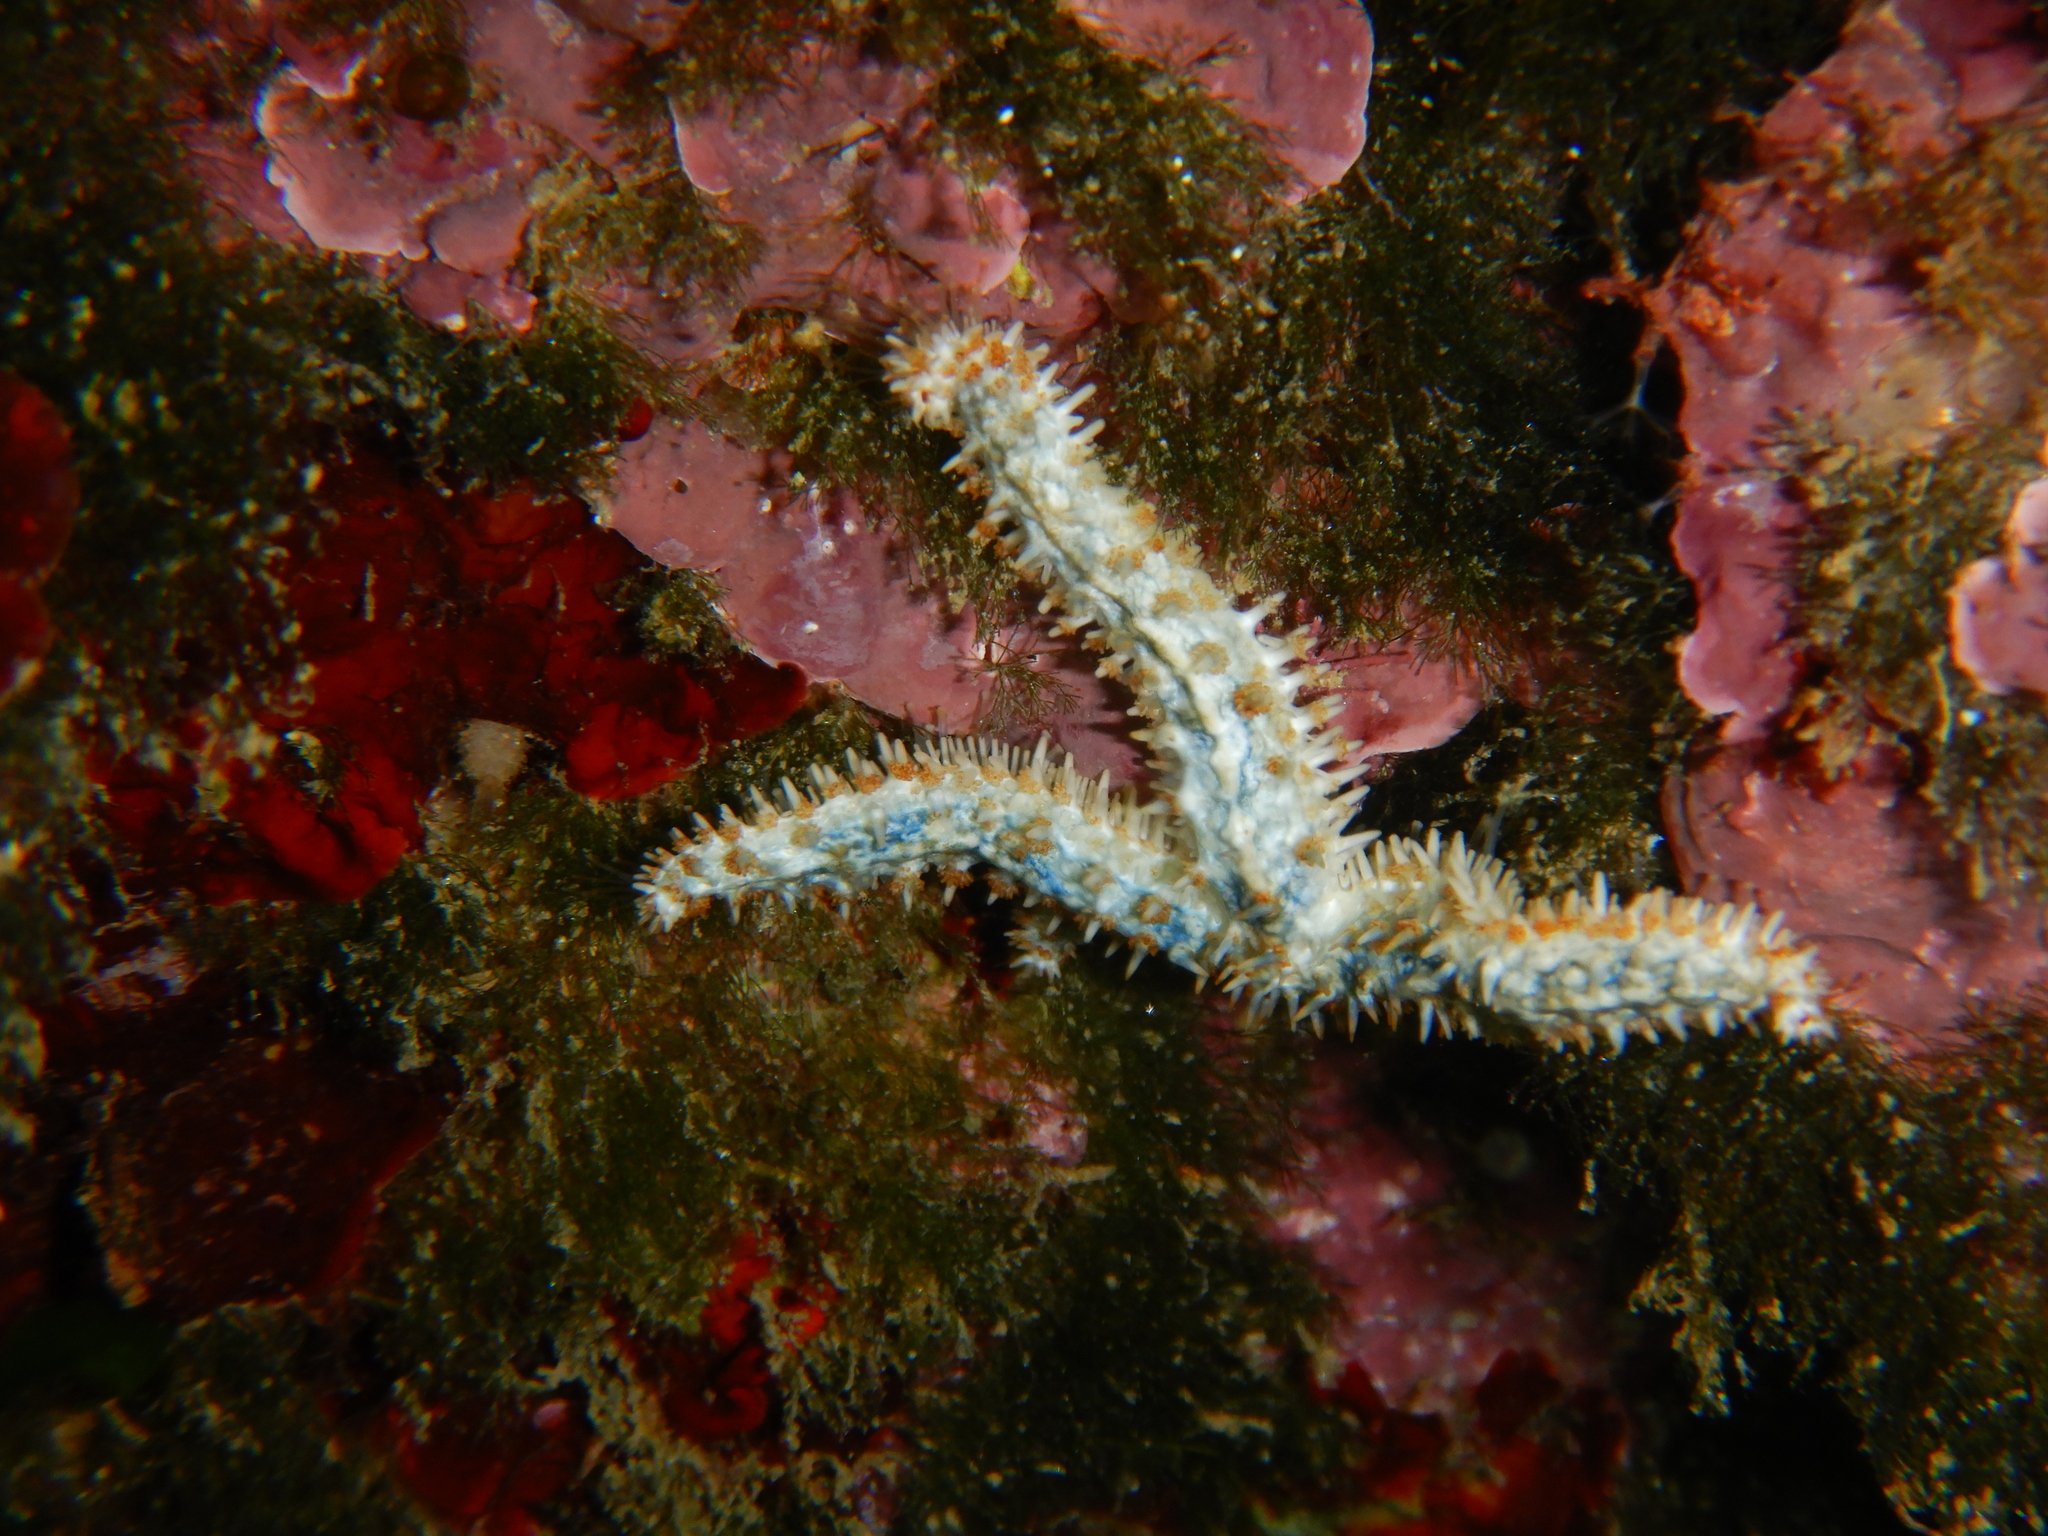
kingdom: Animalia
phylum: Echinodermata
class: Asteroidea
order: Forcipulatida
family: Asteriidae
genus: Coscinasterias
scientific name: Coscinasterias tenuispina
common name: Blue spiny starfish
